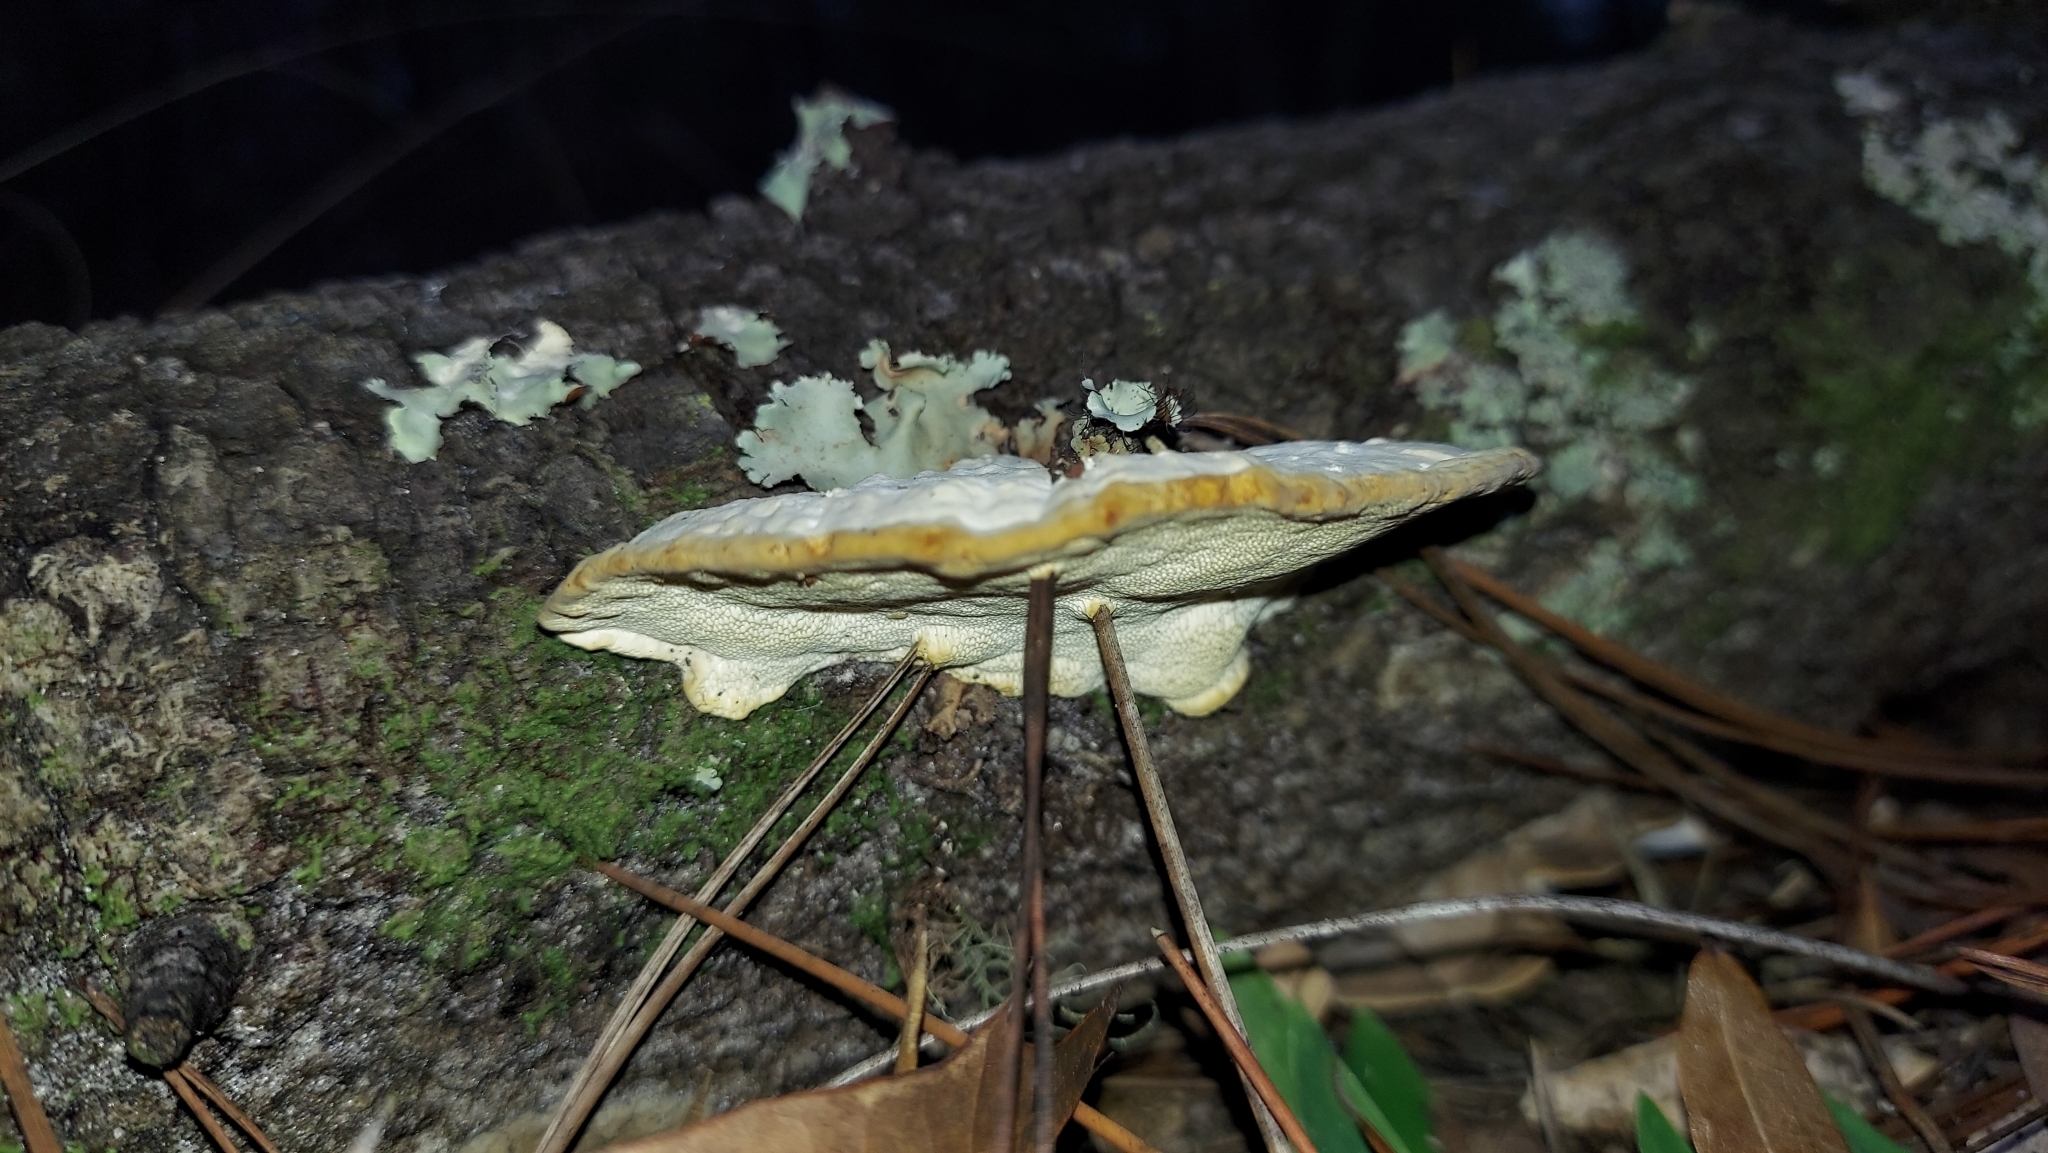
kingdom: Fungi
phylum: Basidiomycota
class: Agaricomycetes
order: Polyporales
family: Polyporaceae
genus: Trametes
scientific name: Trametes lactinea
